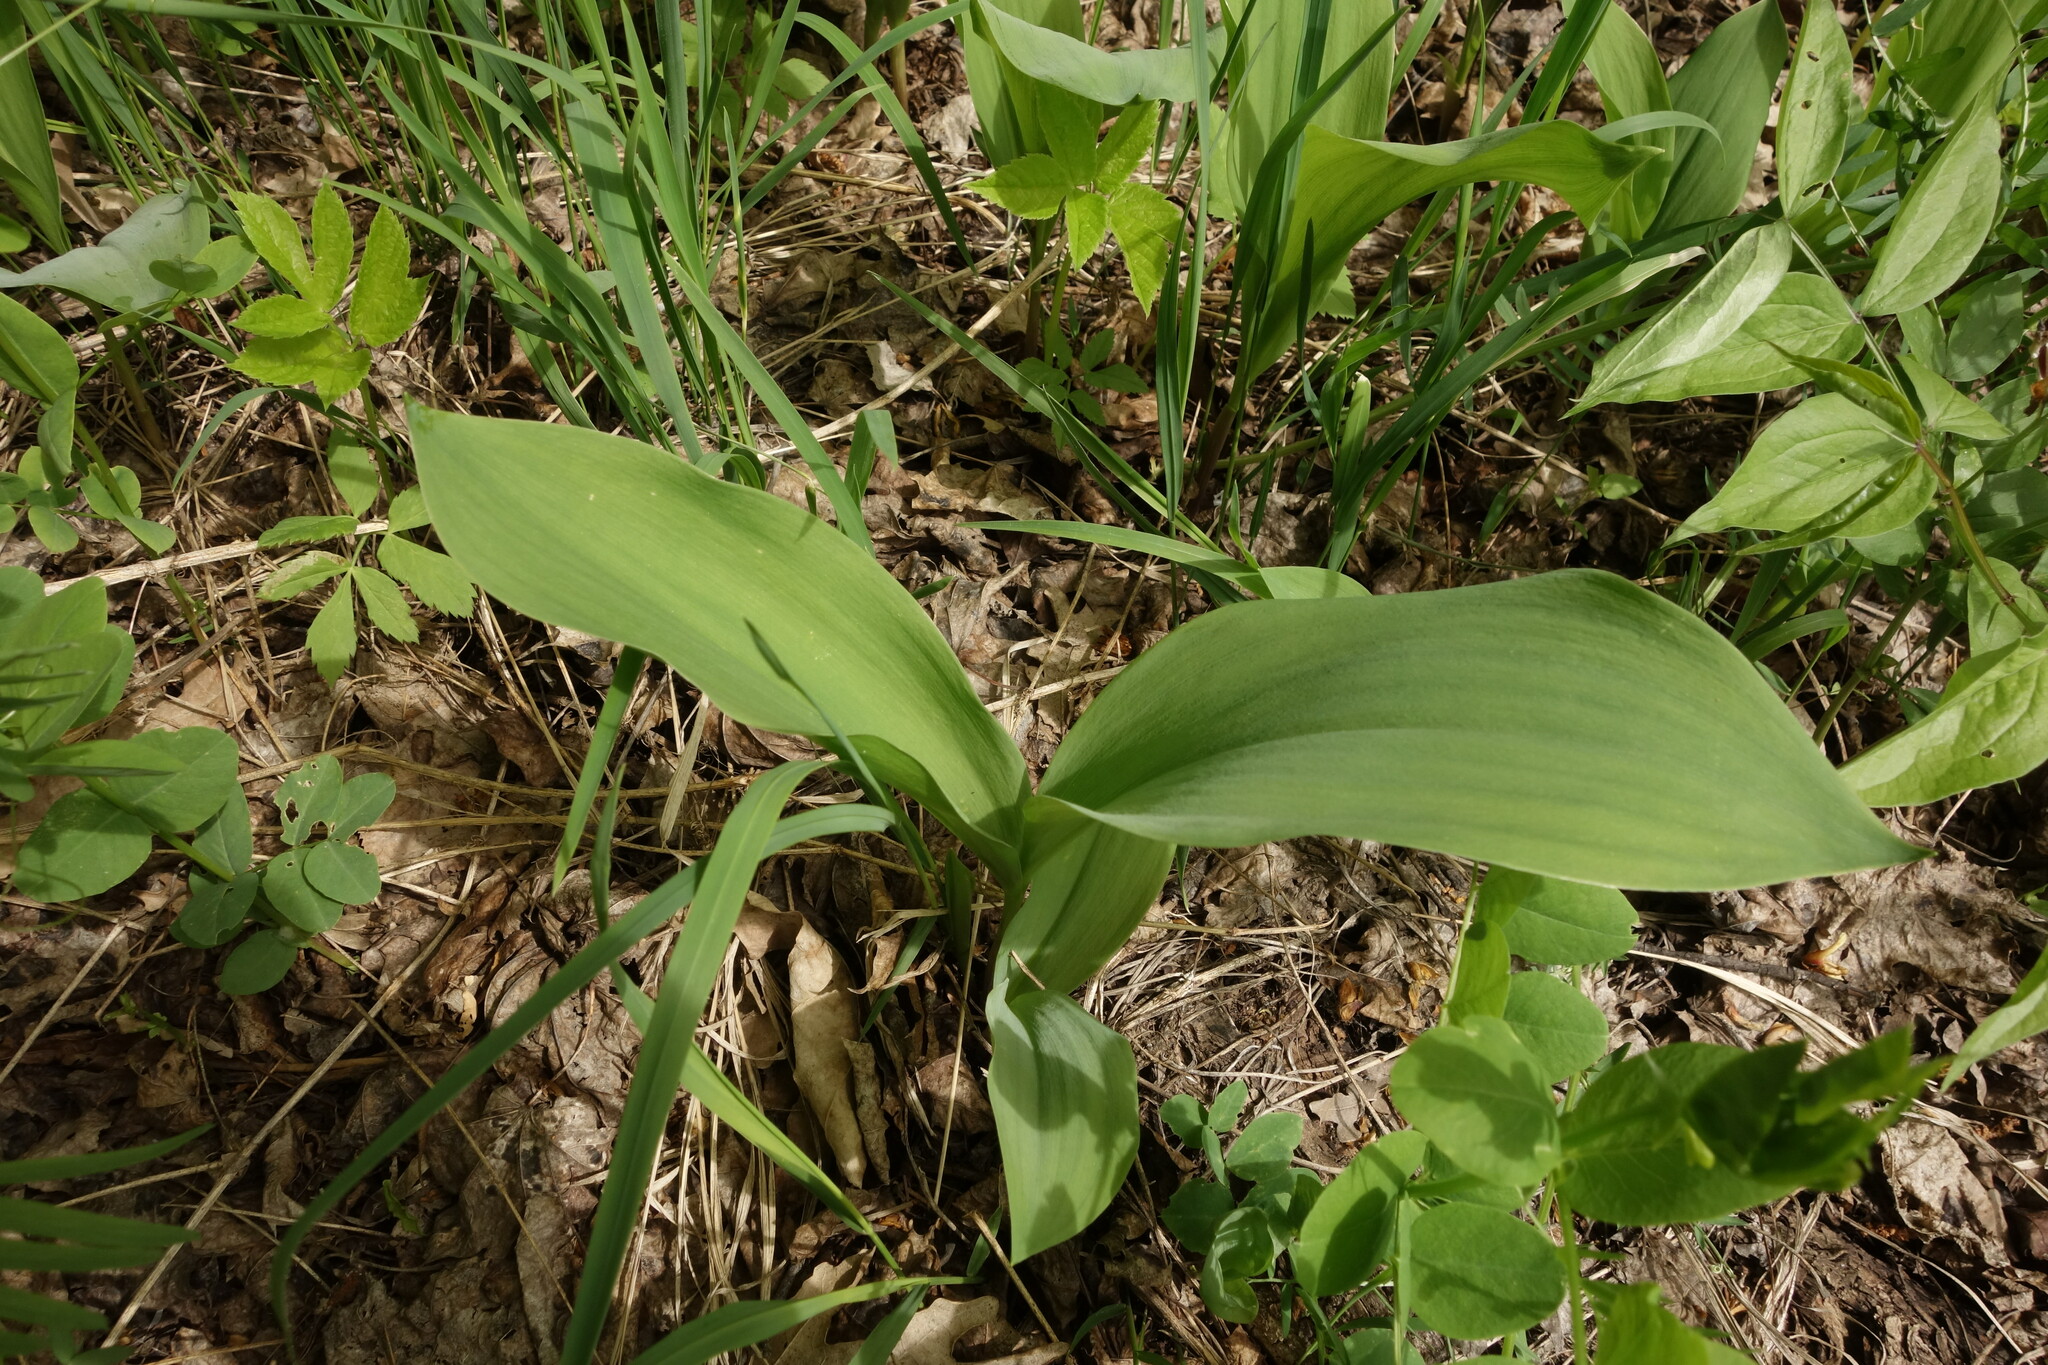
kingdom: Plantae
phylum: Tracheophyta
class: Liliopsida
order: Asparagales
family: Asparagaceae
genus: Convallaria
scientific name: Convallaria majalis
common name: Lily-of-the-valley
